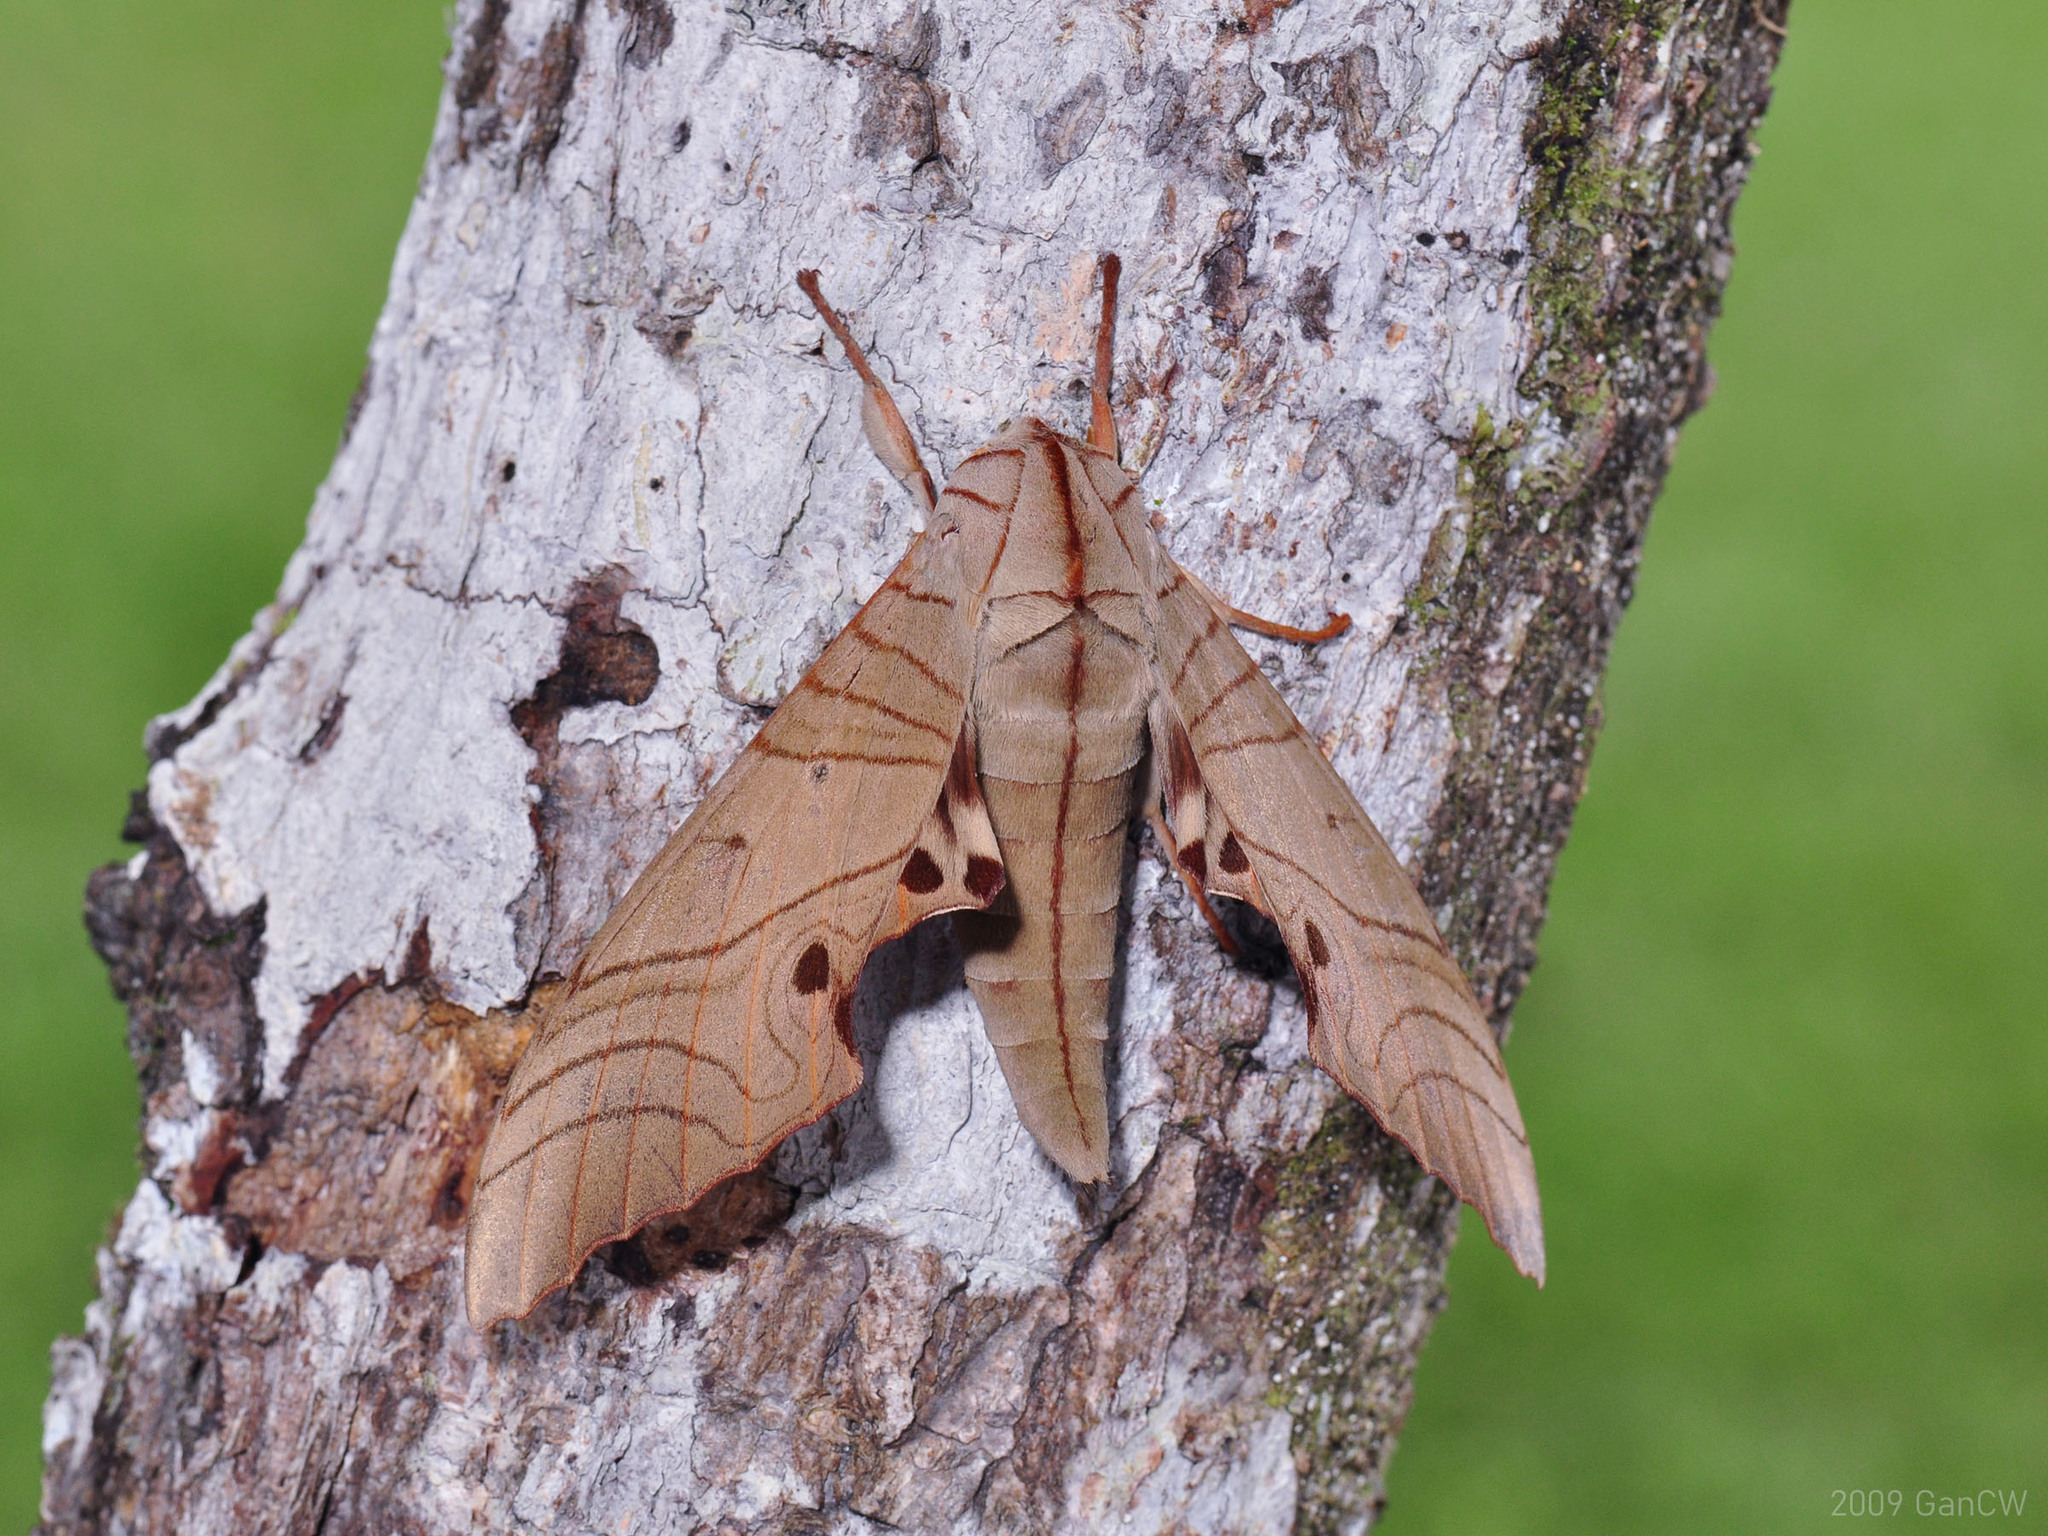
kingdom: Animalia
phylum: Arthropoda
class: Insecta
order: Lepidoptera
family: Sphingidae
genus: Marumba
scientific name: Marumba sperchius
